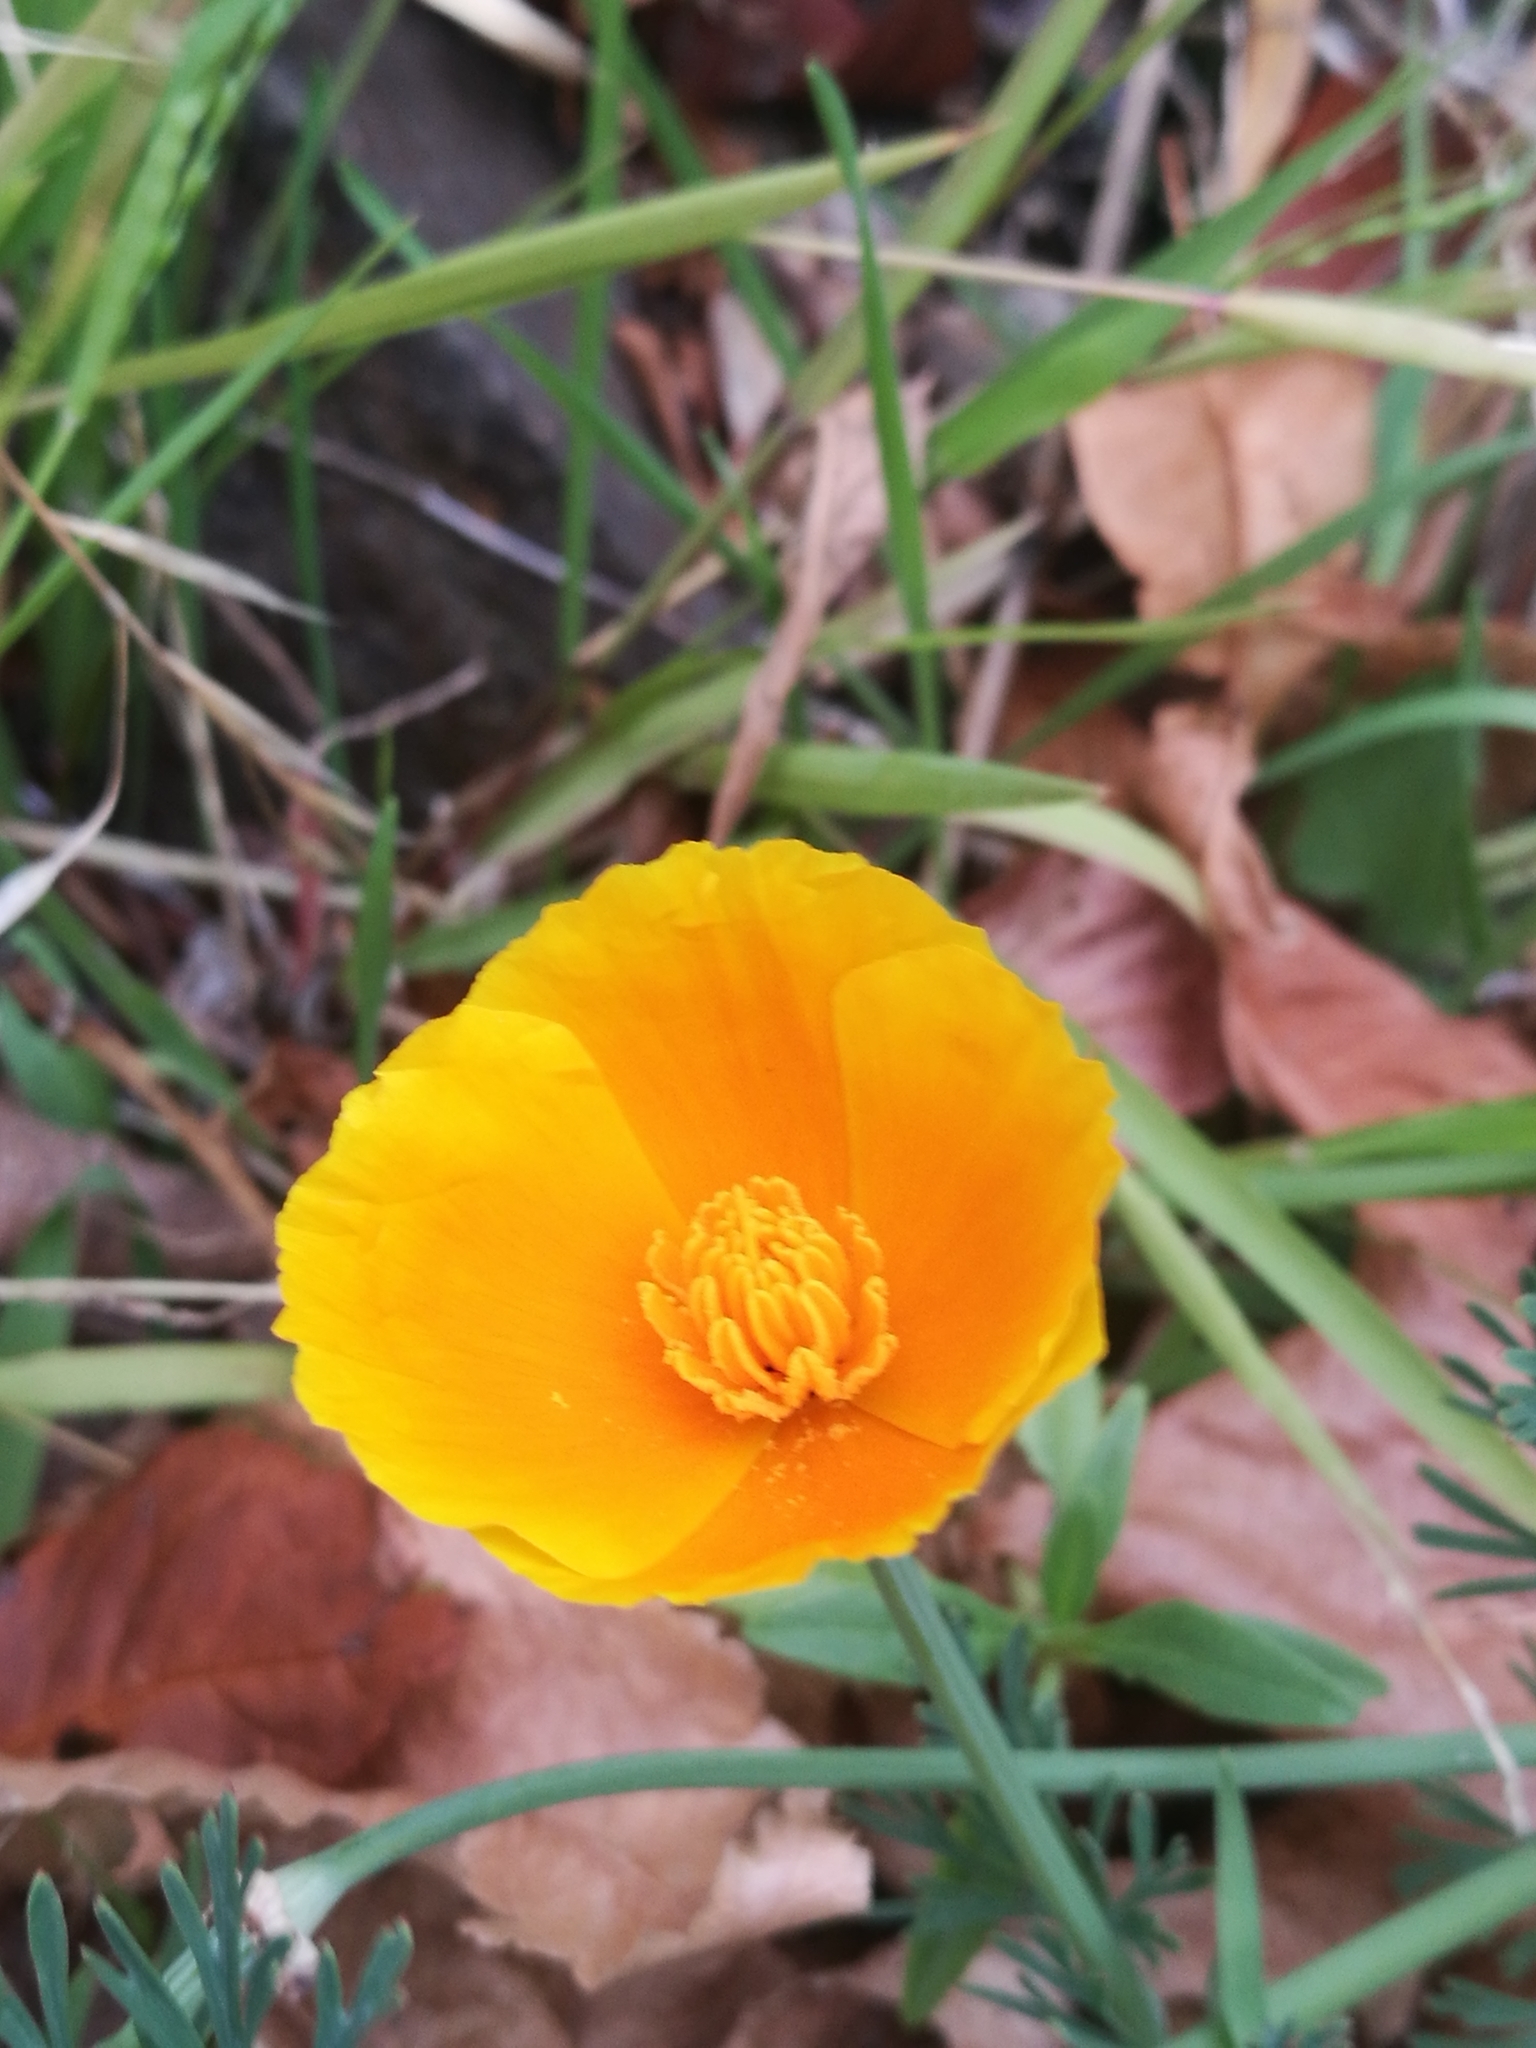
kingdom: Plantae
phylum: Tracheophyta
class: Magnoliopsida
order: Ranunculales
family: Papaveraceae
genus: Eschscholzia
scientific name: Eschscholzia californica
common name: California poppy
